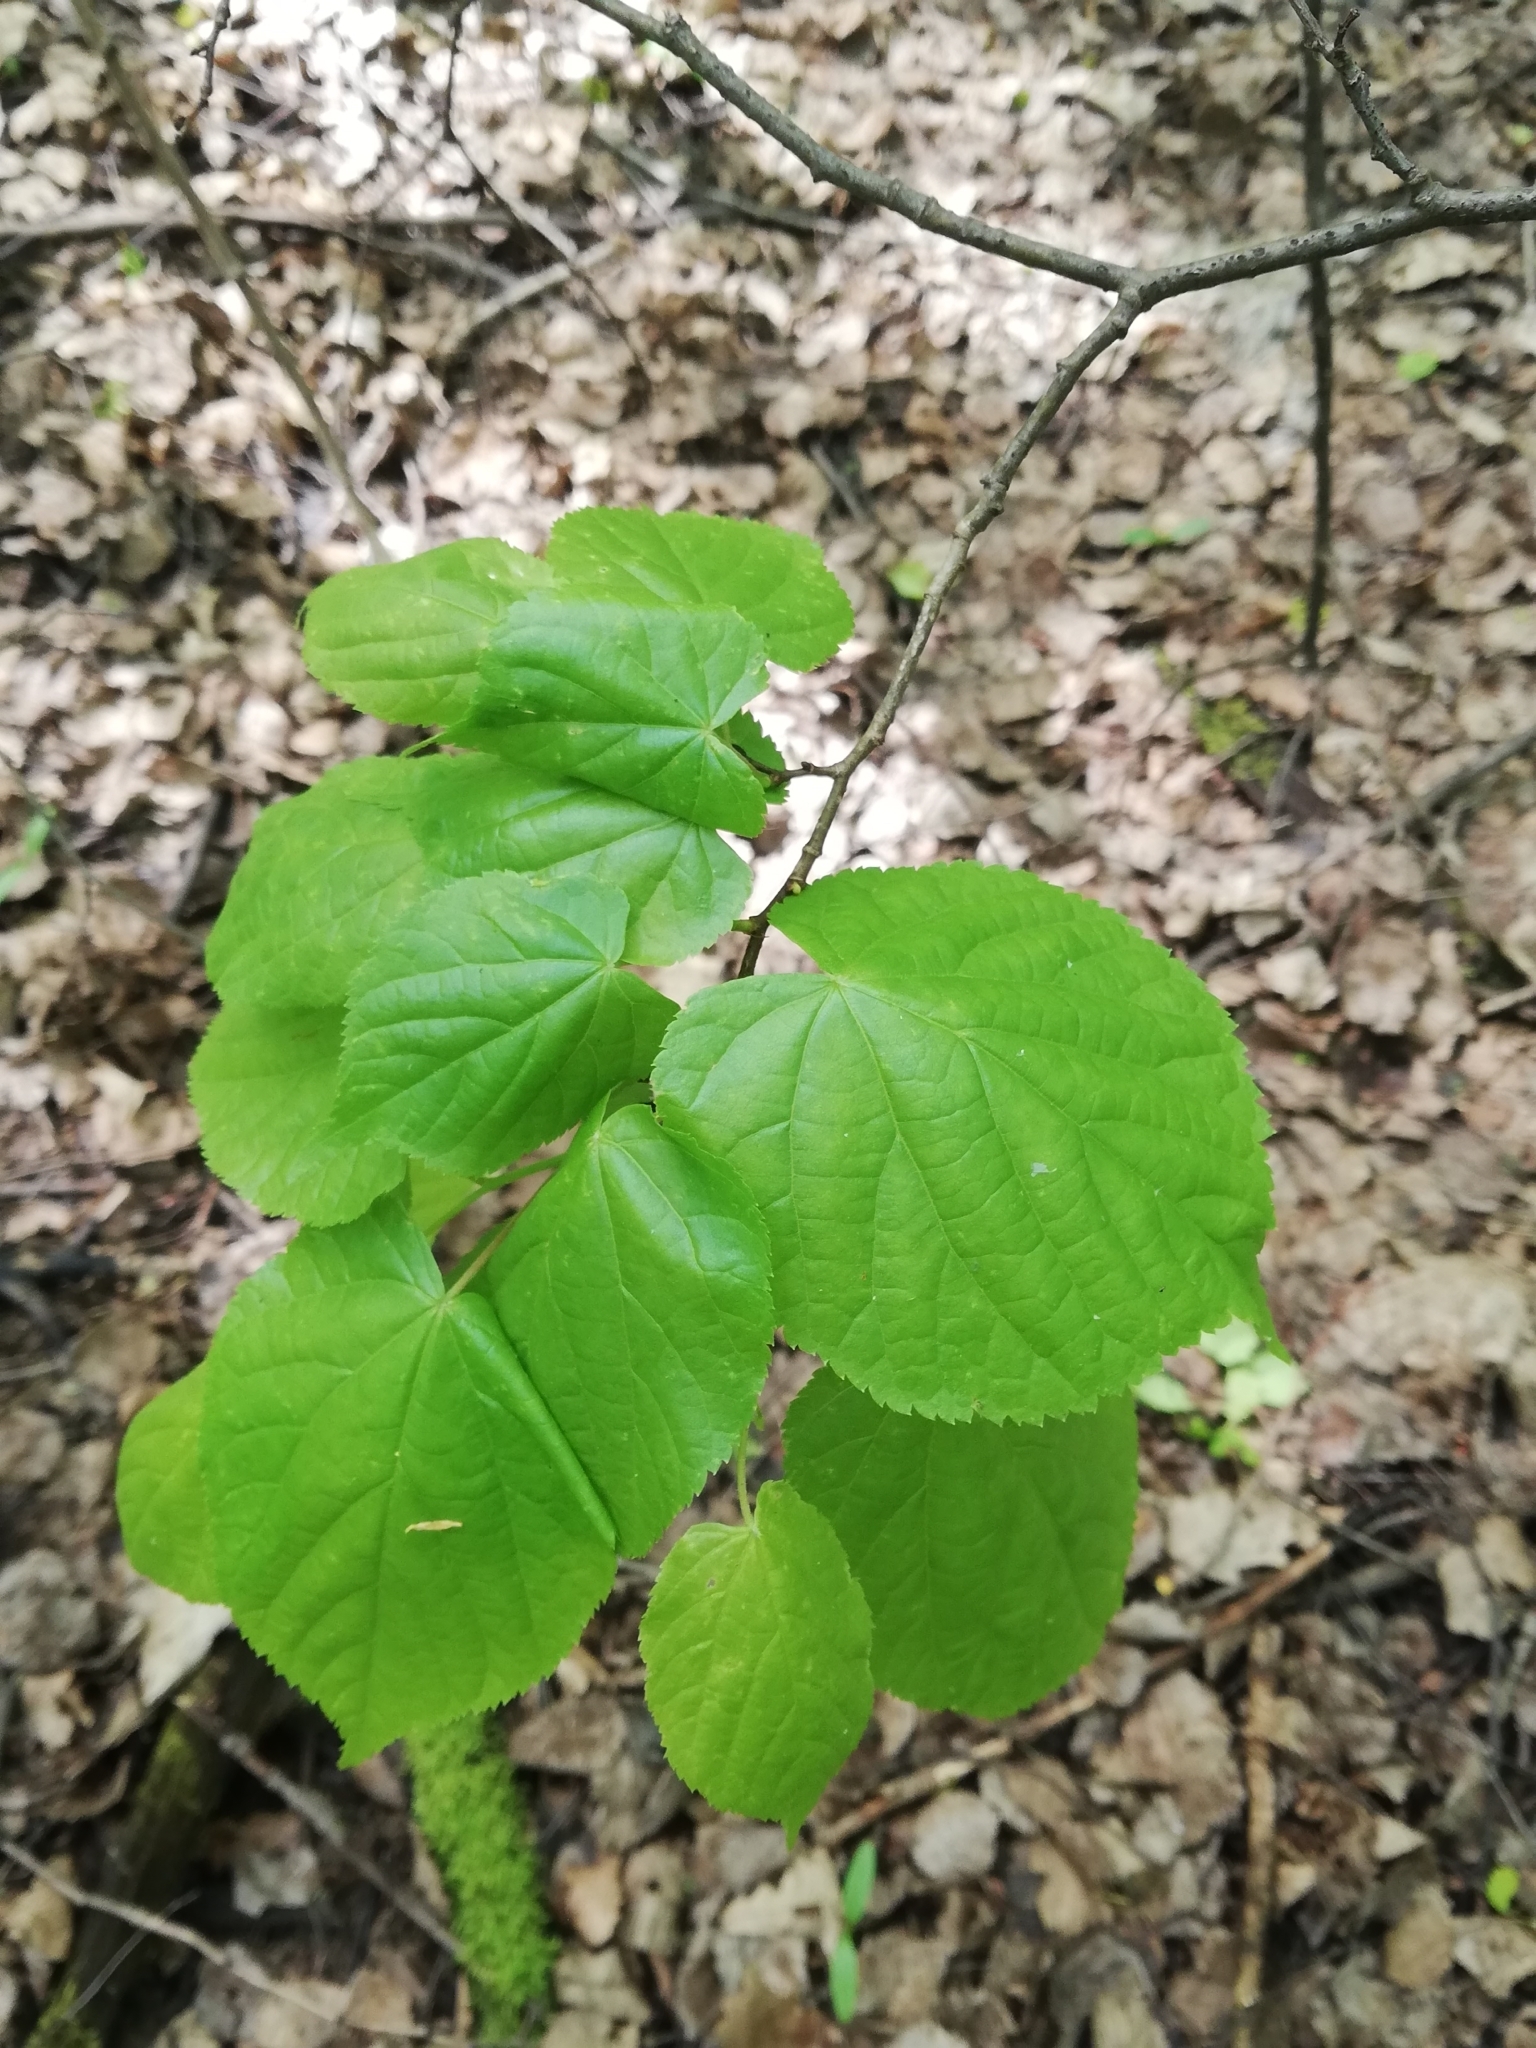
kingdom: Plantae
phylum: Tracheophyta
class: Magnoliopsida
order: Malvales
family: Malvaceae
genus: Tilia
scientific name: Tilia cordata
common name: Small-leaved lime
